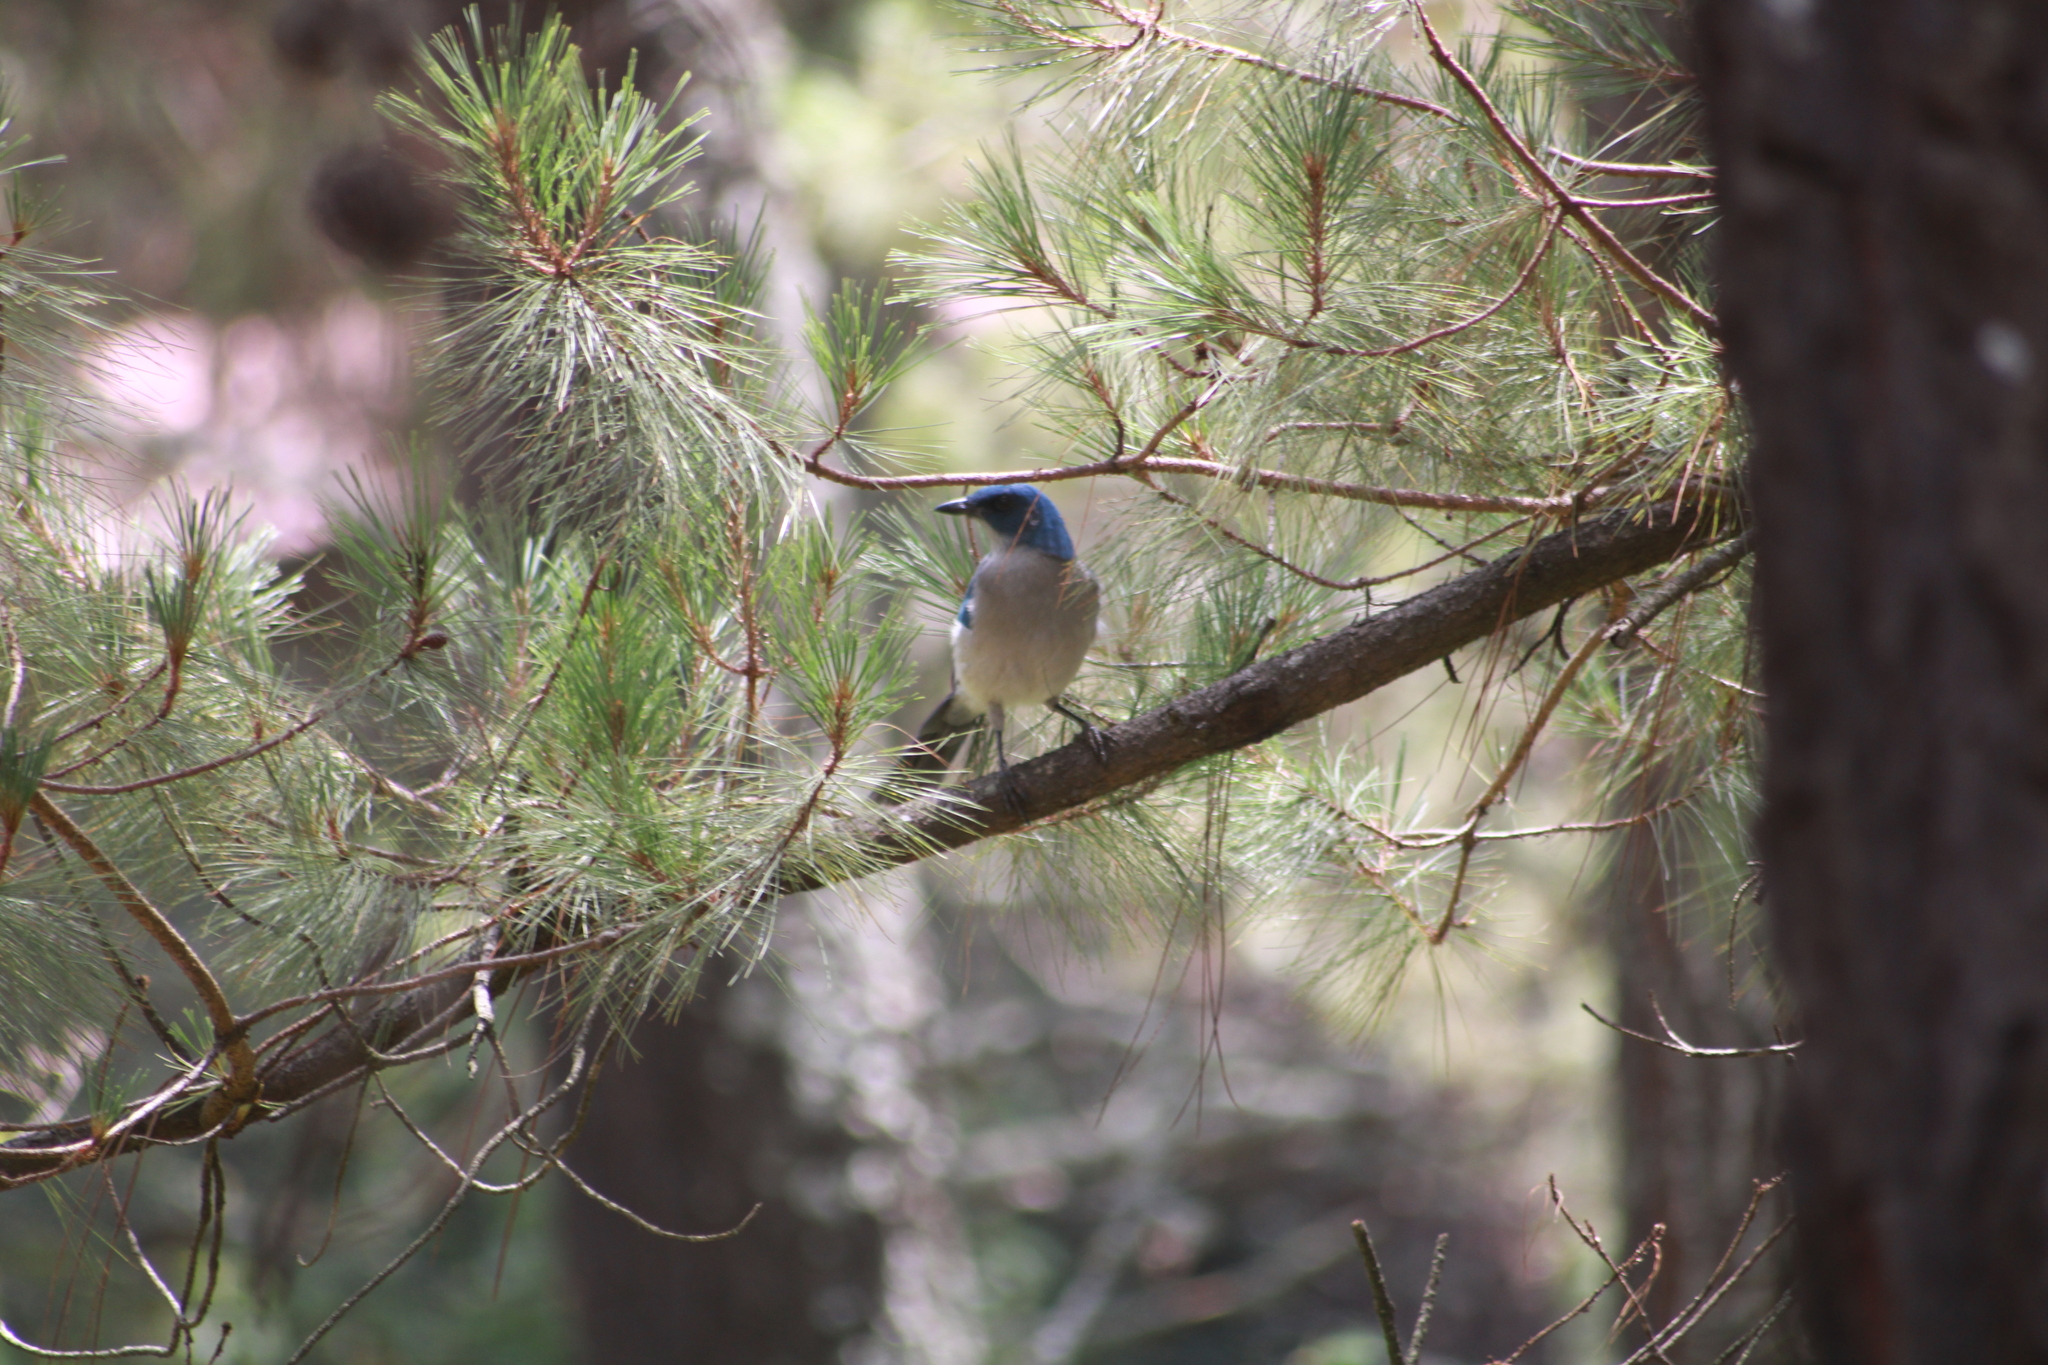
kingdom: Animalia
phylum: Chordata
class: Aves
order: Passeriformes
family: Corvidae
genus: Aphelocoma
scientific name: Aphelocoma ultramarina
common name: Transvolcanic jay
